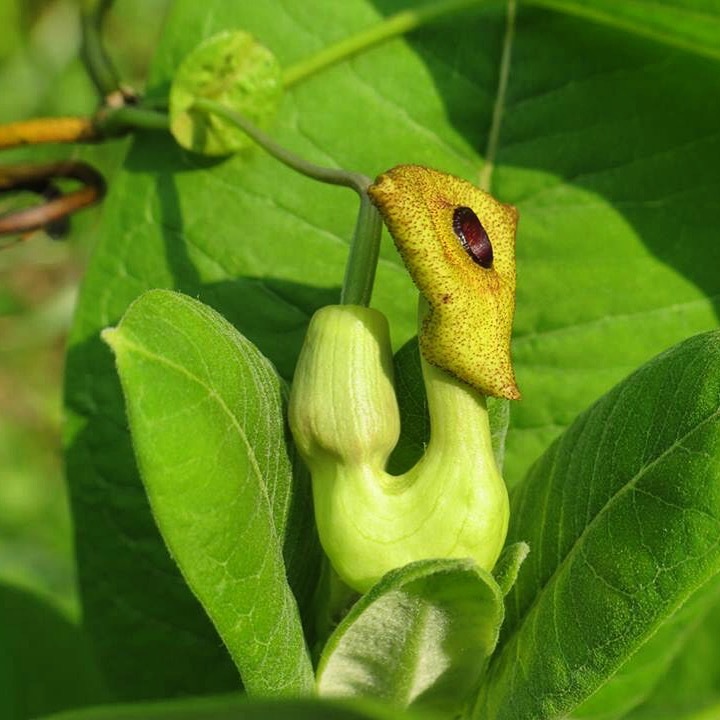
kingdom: Plantae
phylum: Tracheophyta
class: Magnoliopsida
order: Piperales
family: Aristolochiaceae
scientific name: Aristolochiaceae
